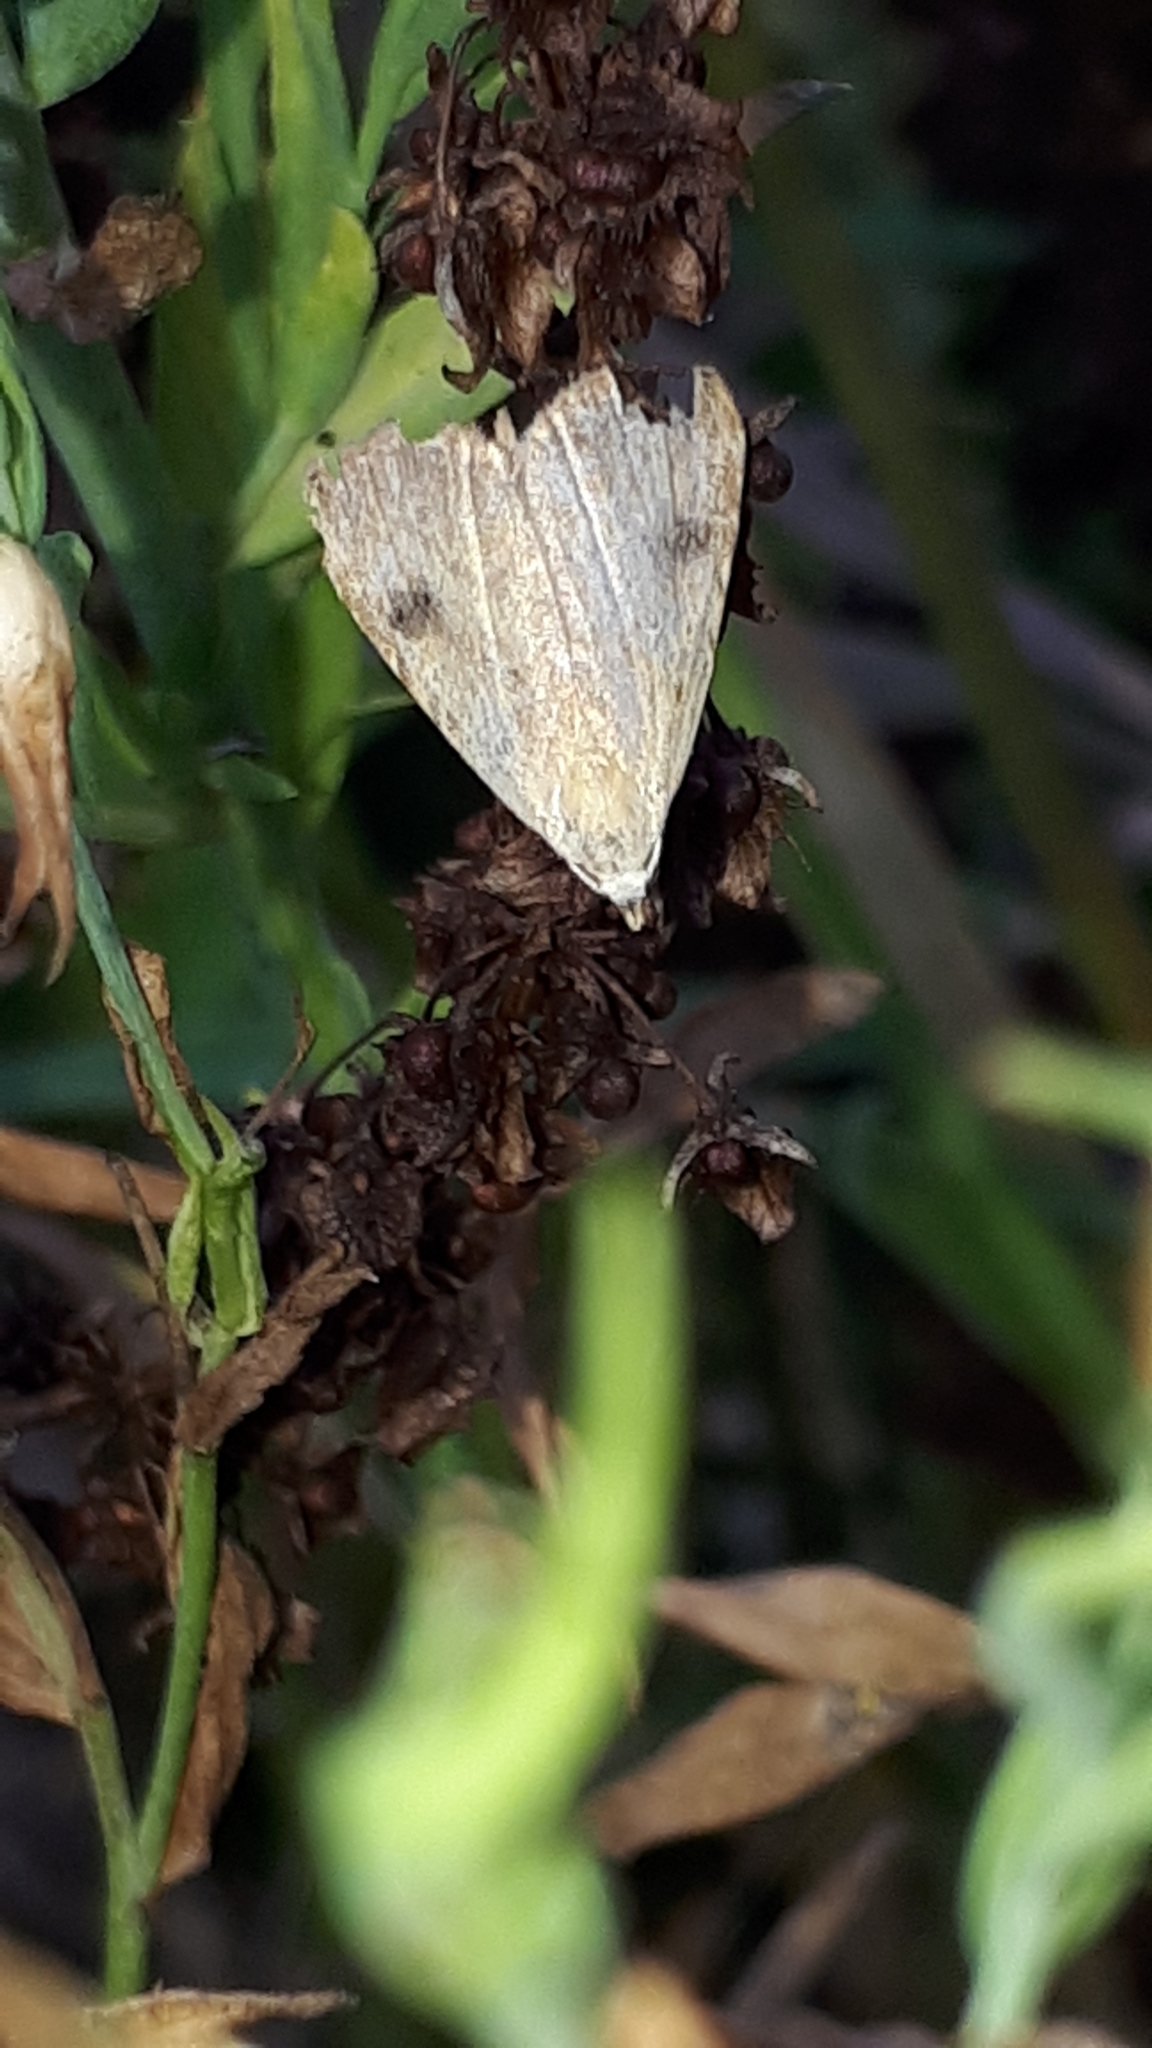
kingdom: Animalia
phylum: Arthropoda
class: Insecta
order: Lepidoptera
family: Erebidae
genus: Rivula
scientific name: Rivula sericealis
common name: Straw dot
